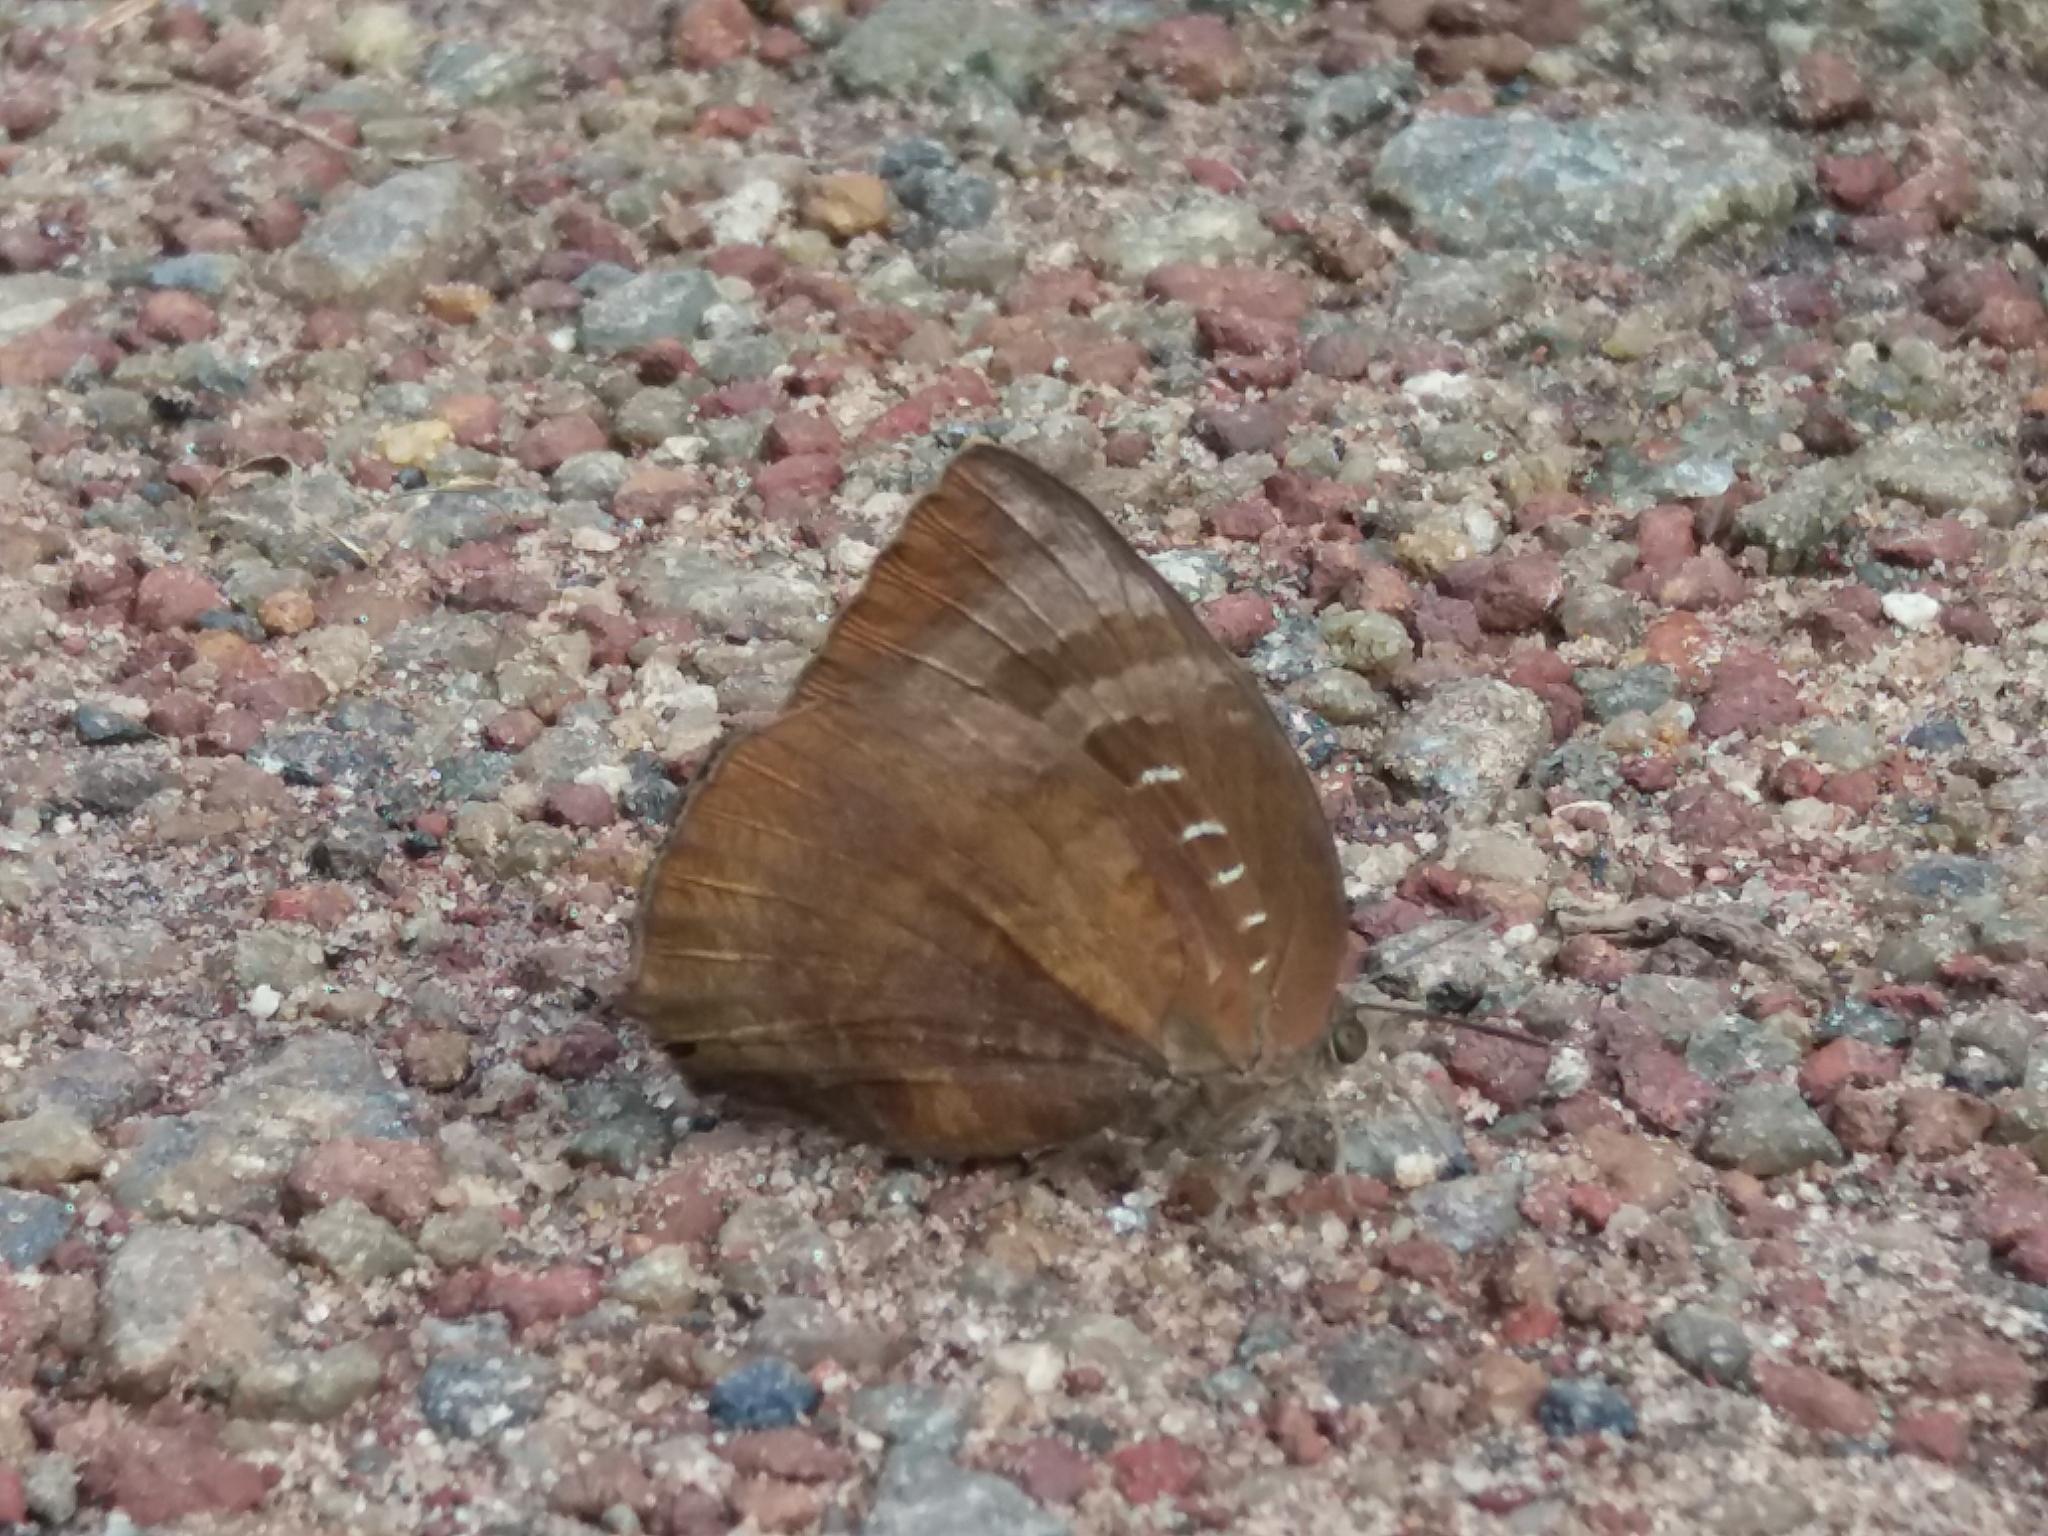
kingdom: Animalia
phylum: Arthropoda
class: Insecta
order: Lepidoptera
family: Lycaenidae
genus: Arhopala
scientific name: Arhopala centaurus
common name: Dull oak-blue
